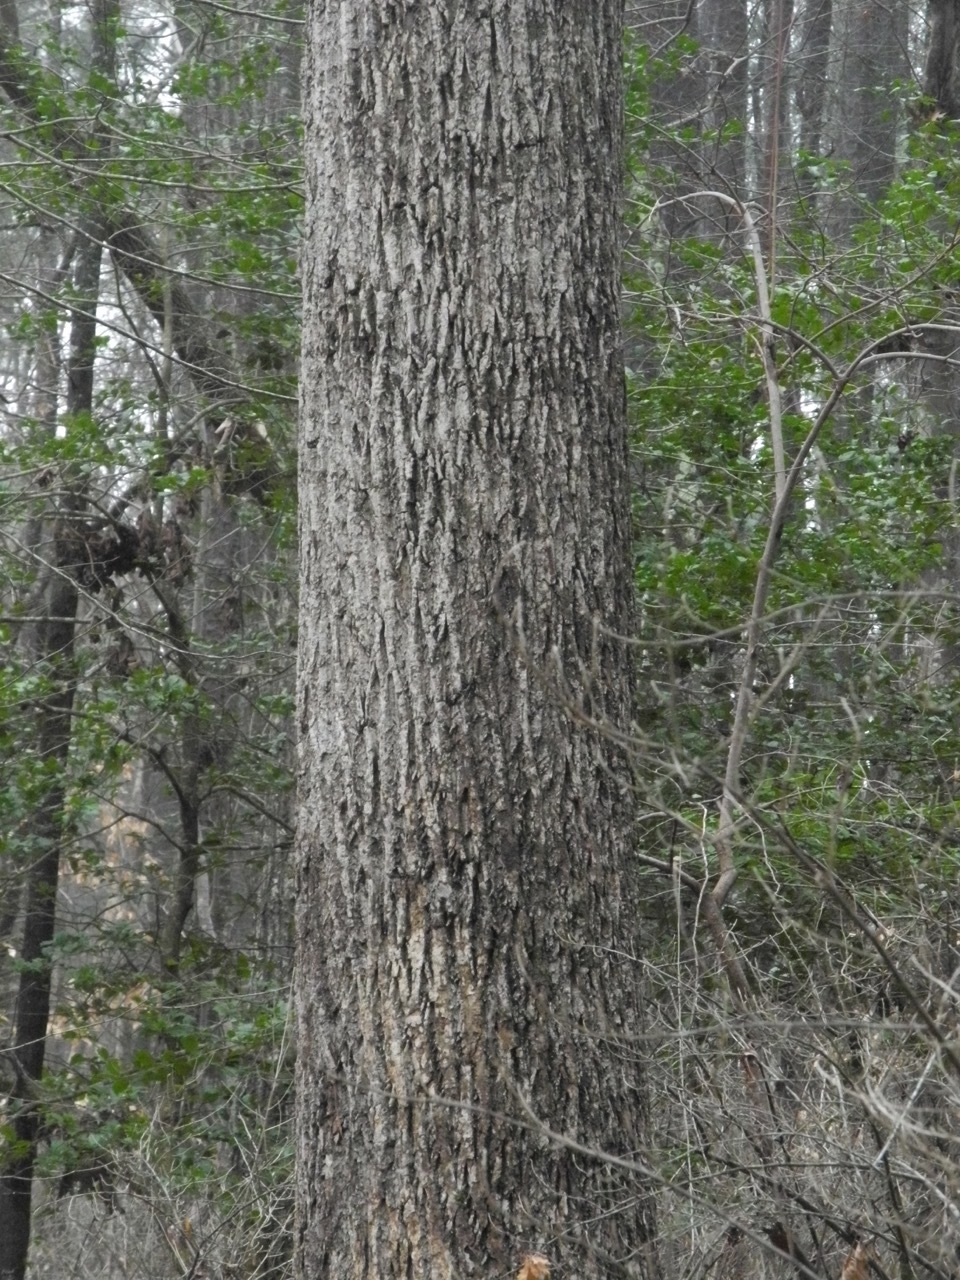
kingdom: Plantae
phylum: Tracheophyta
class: Magnoliopsida
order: Magnoliales
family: Magnoliaceae
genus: Liriodendron
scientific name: Liriodendron tulipifera
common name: Tulip tree
